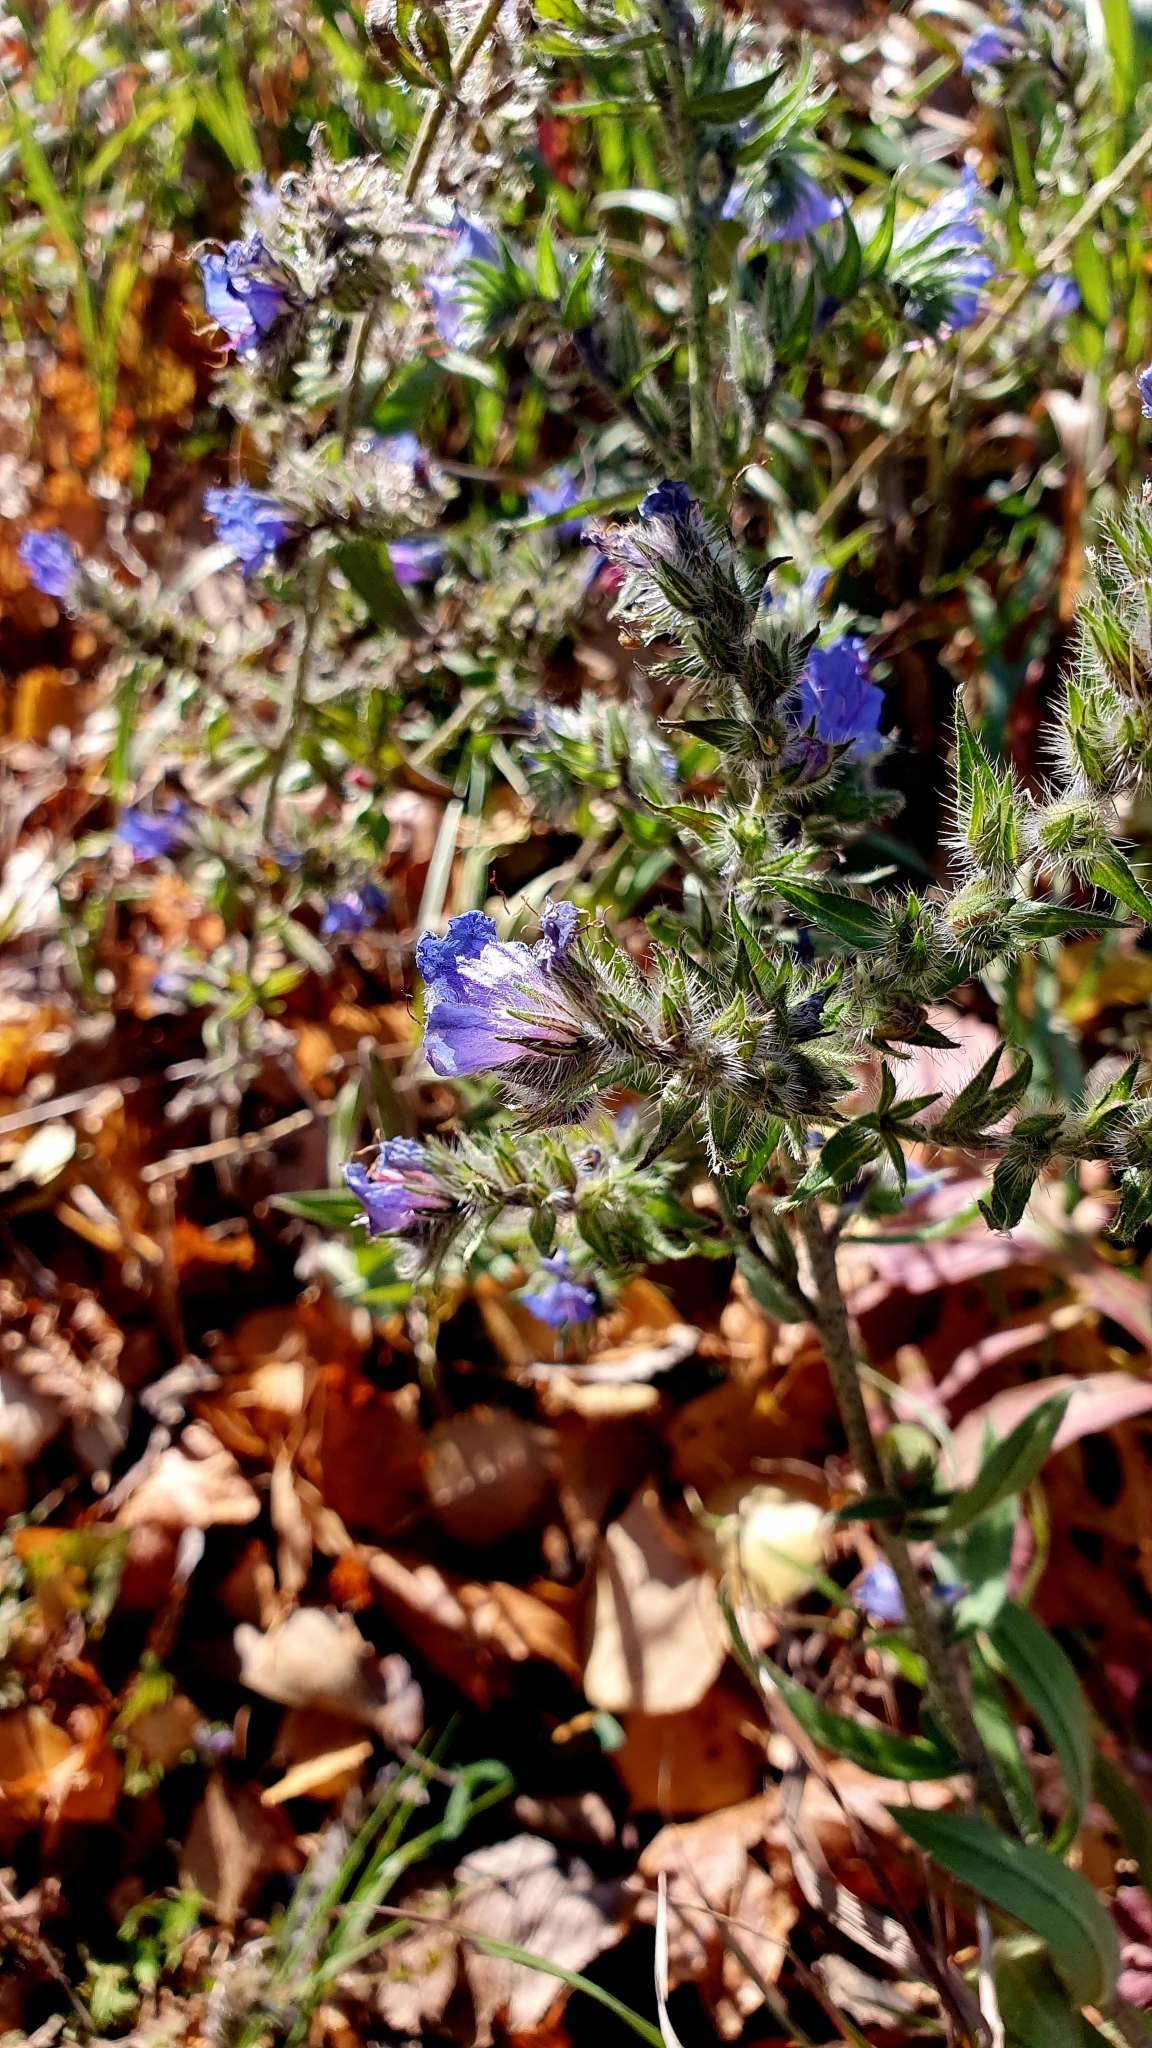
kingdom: Plantae
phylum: Tracheophyta
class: Magnoliopsida
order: Boraginales
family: Boraginaceae
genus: Echium
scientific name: Echium vulgare
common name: Common viper's bugloss
